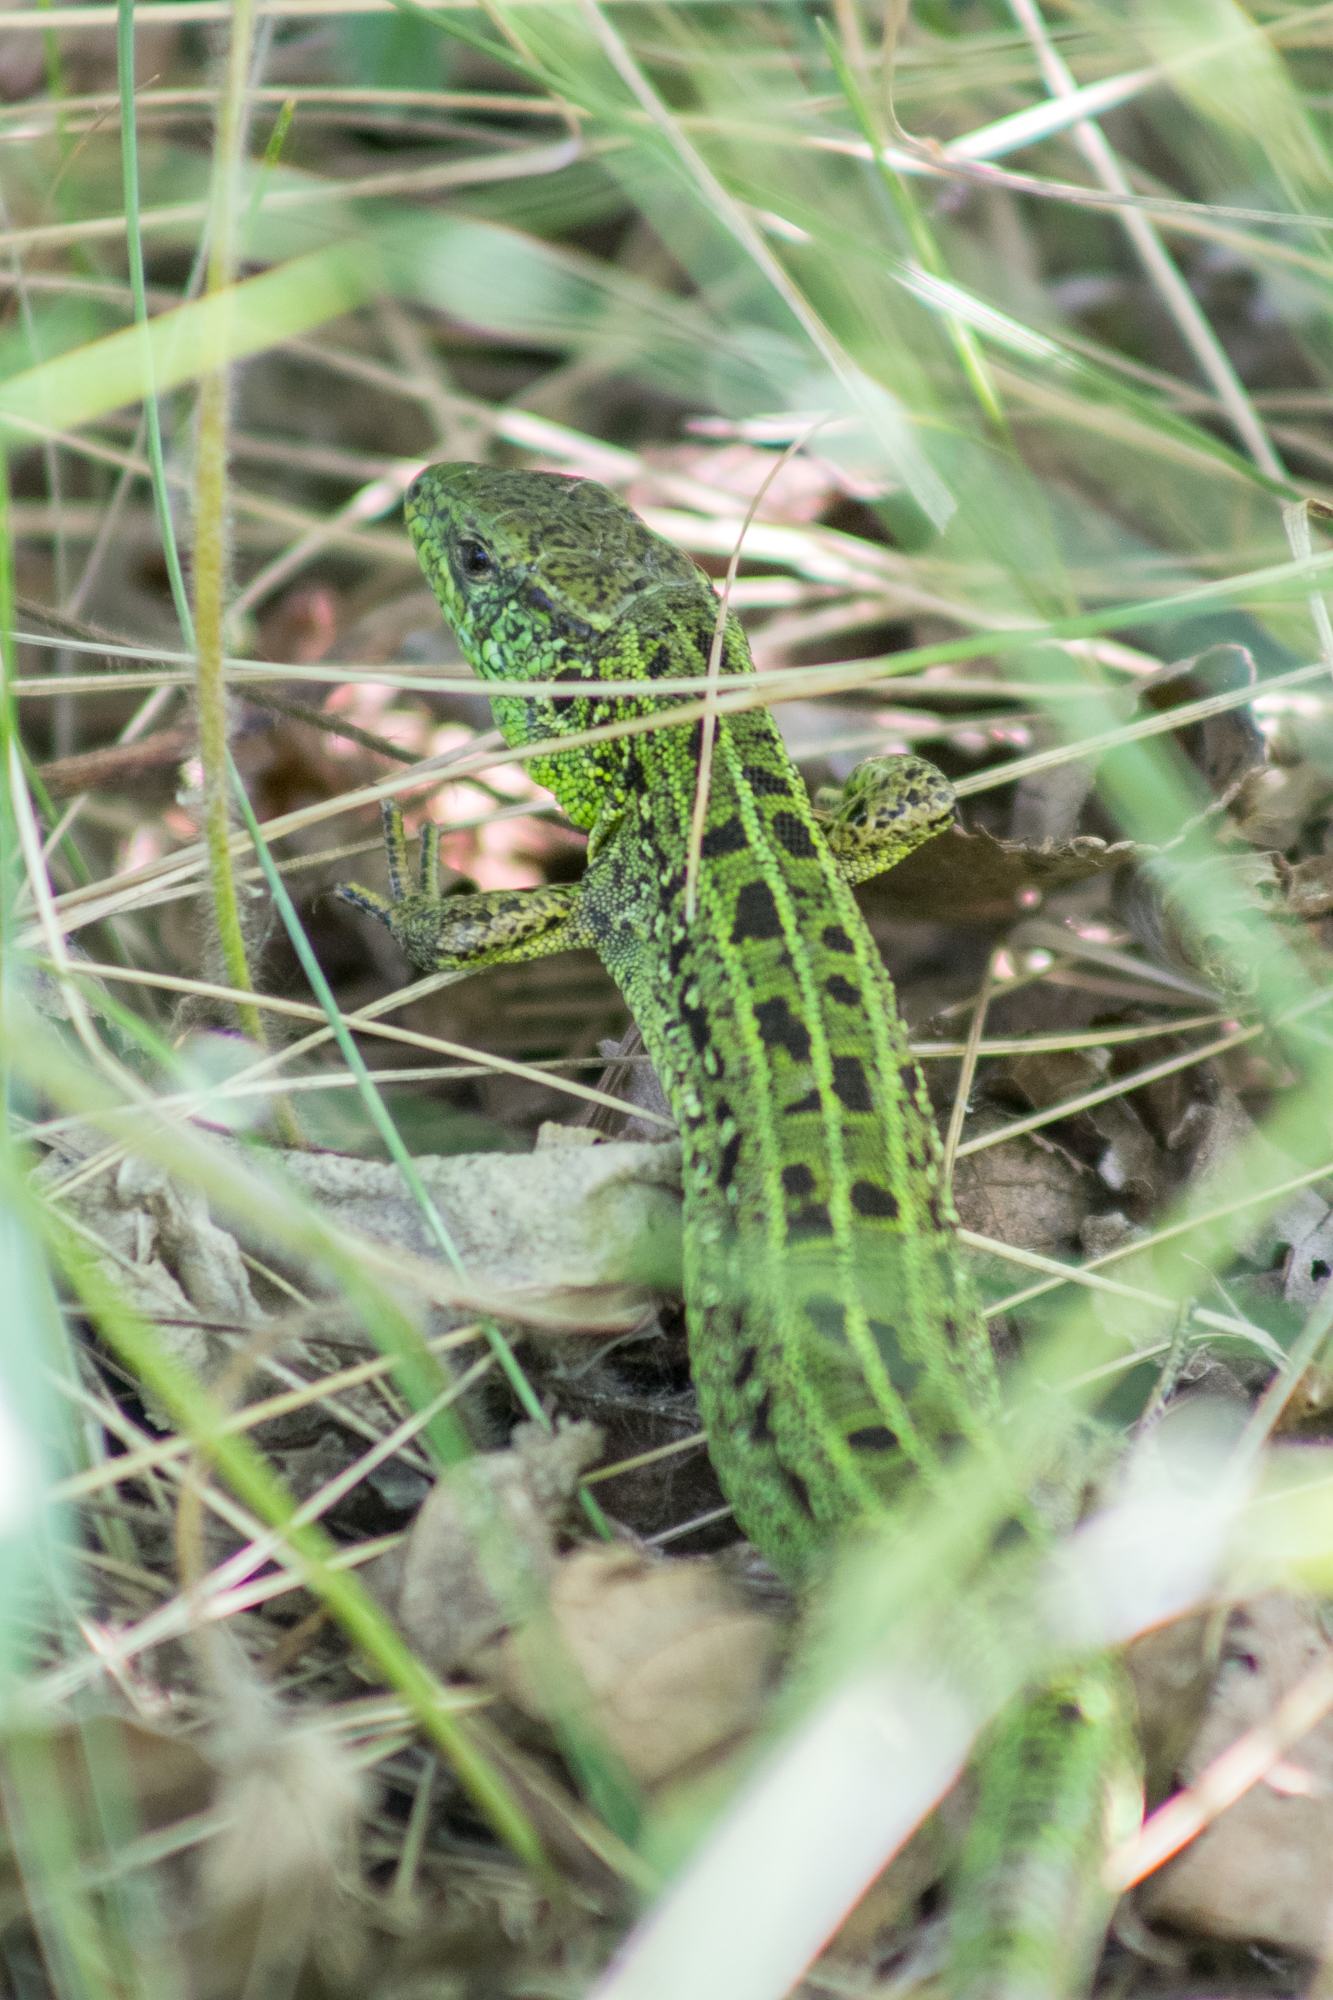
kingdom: Animalia
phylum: Chordata
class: Squamata
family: Lacertidae
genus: Lacerta
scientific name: Lacerta agilis
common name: Sand lizard
